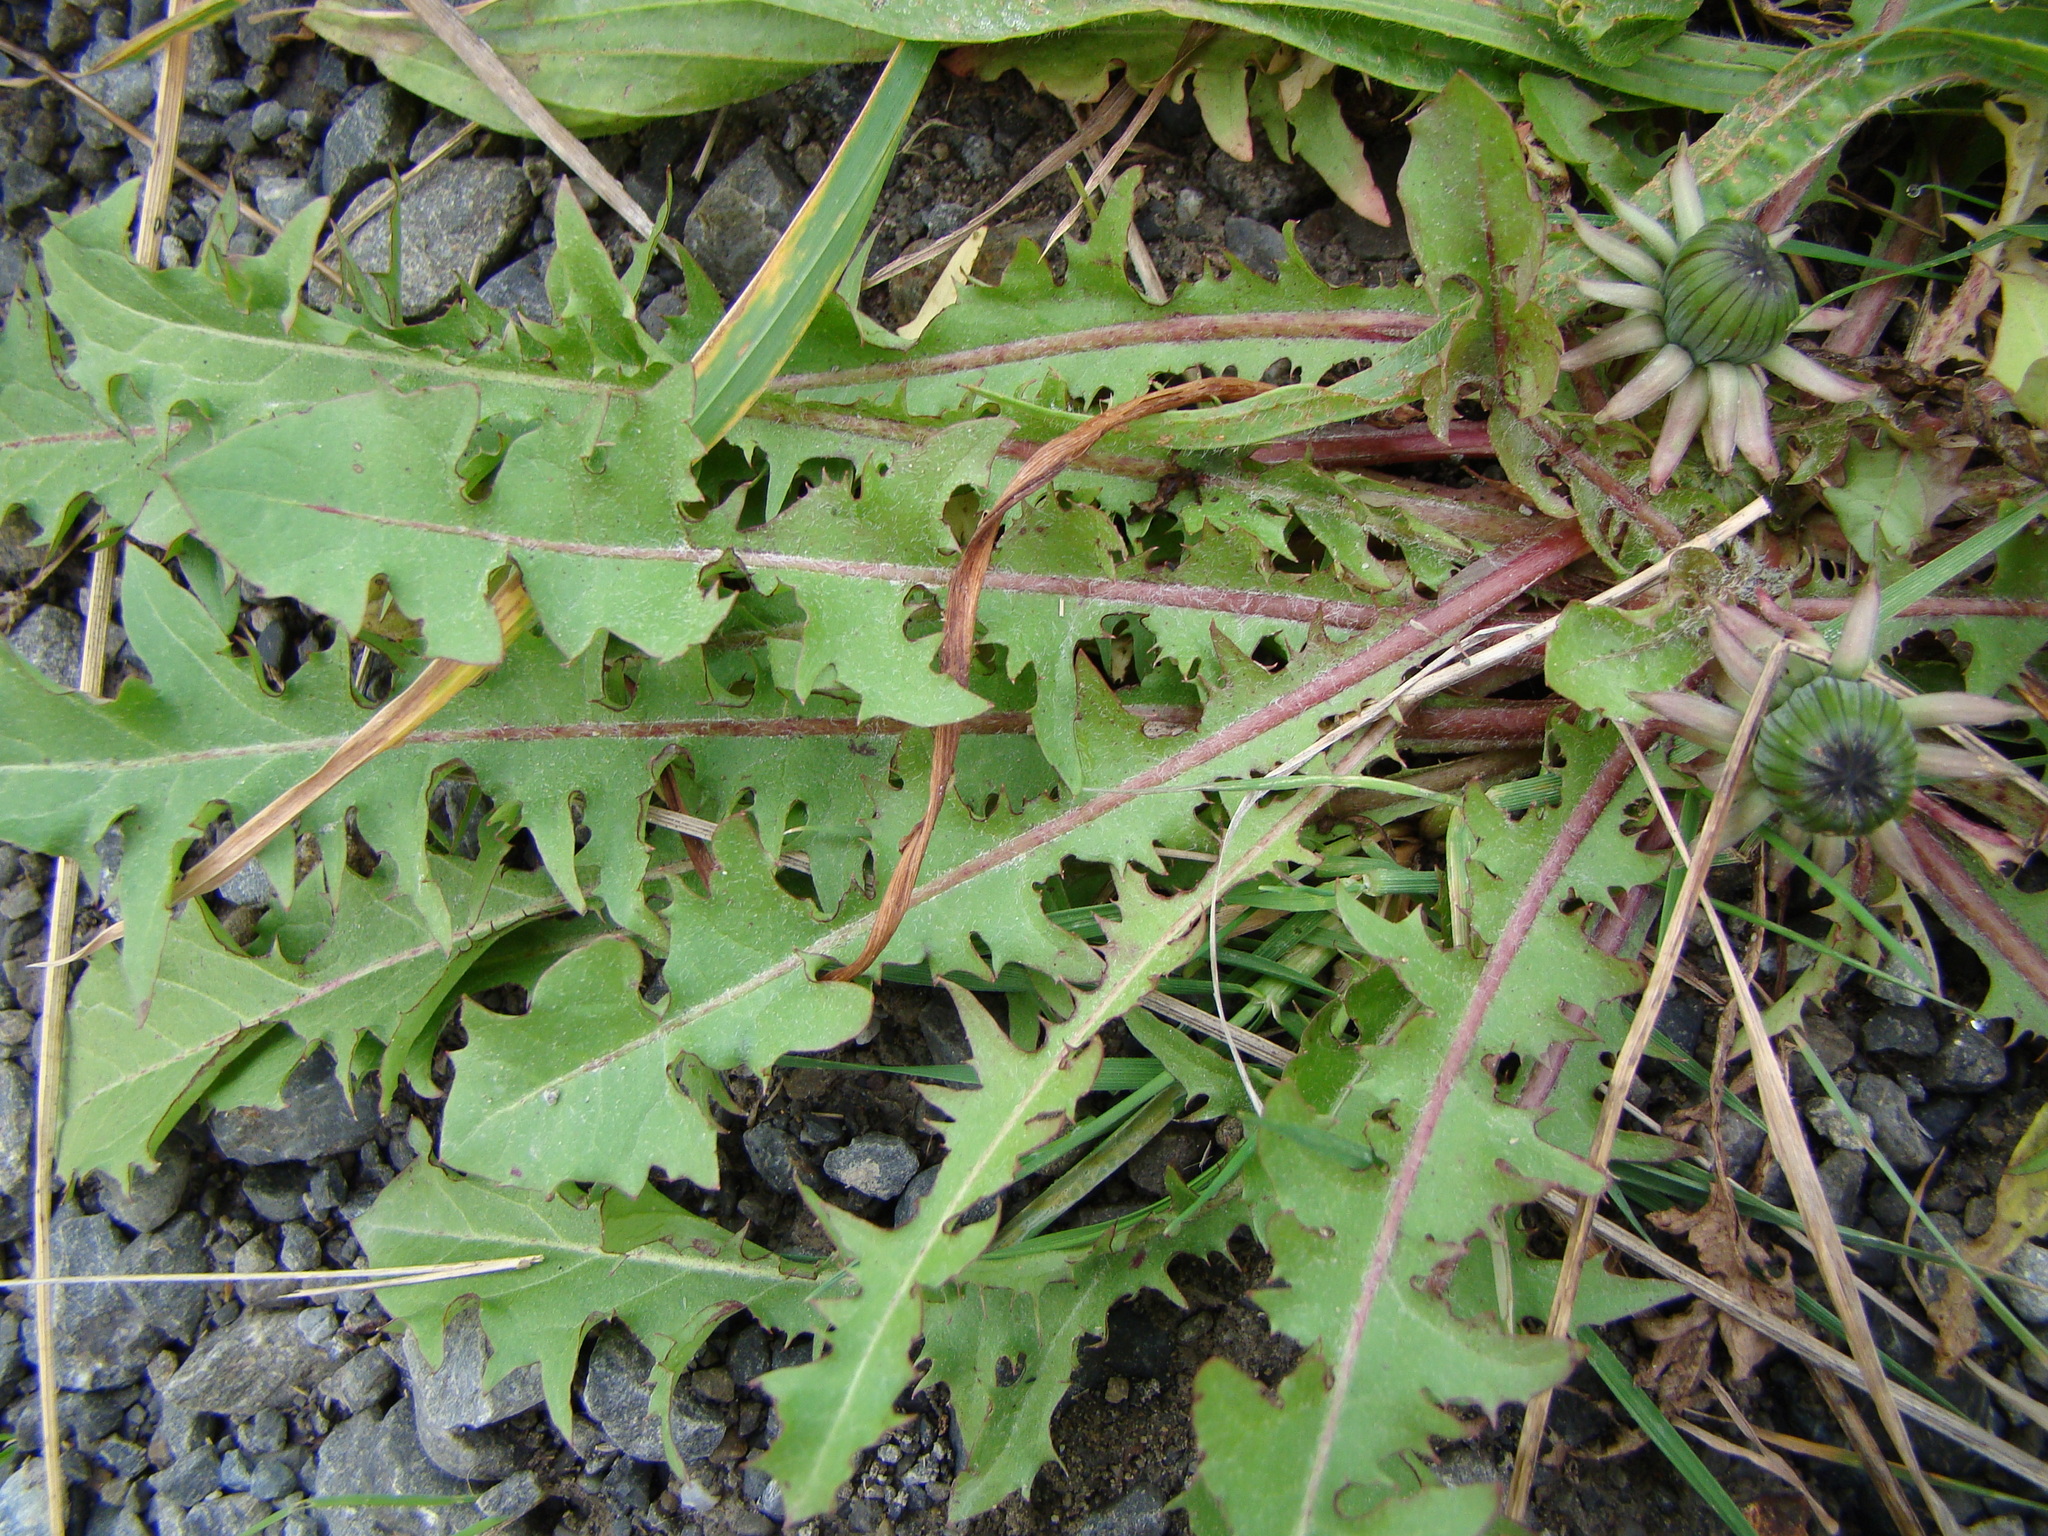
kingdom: Plantae
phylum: Tracheophyta
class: Magnoliopsida
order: Asterales
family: Asteraceae
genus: Taraxacum
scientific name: Taraxacum officinale
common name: Common dandelion
